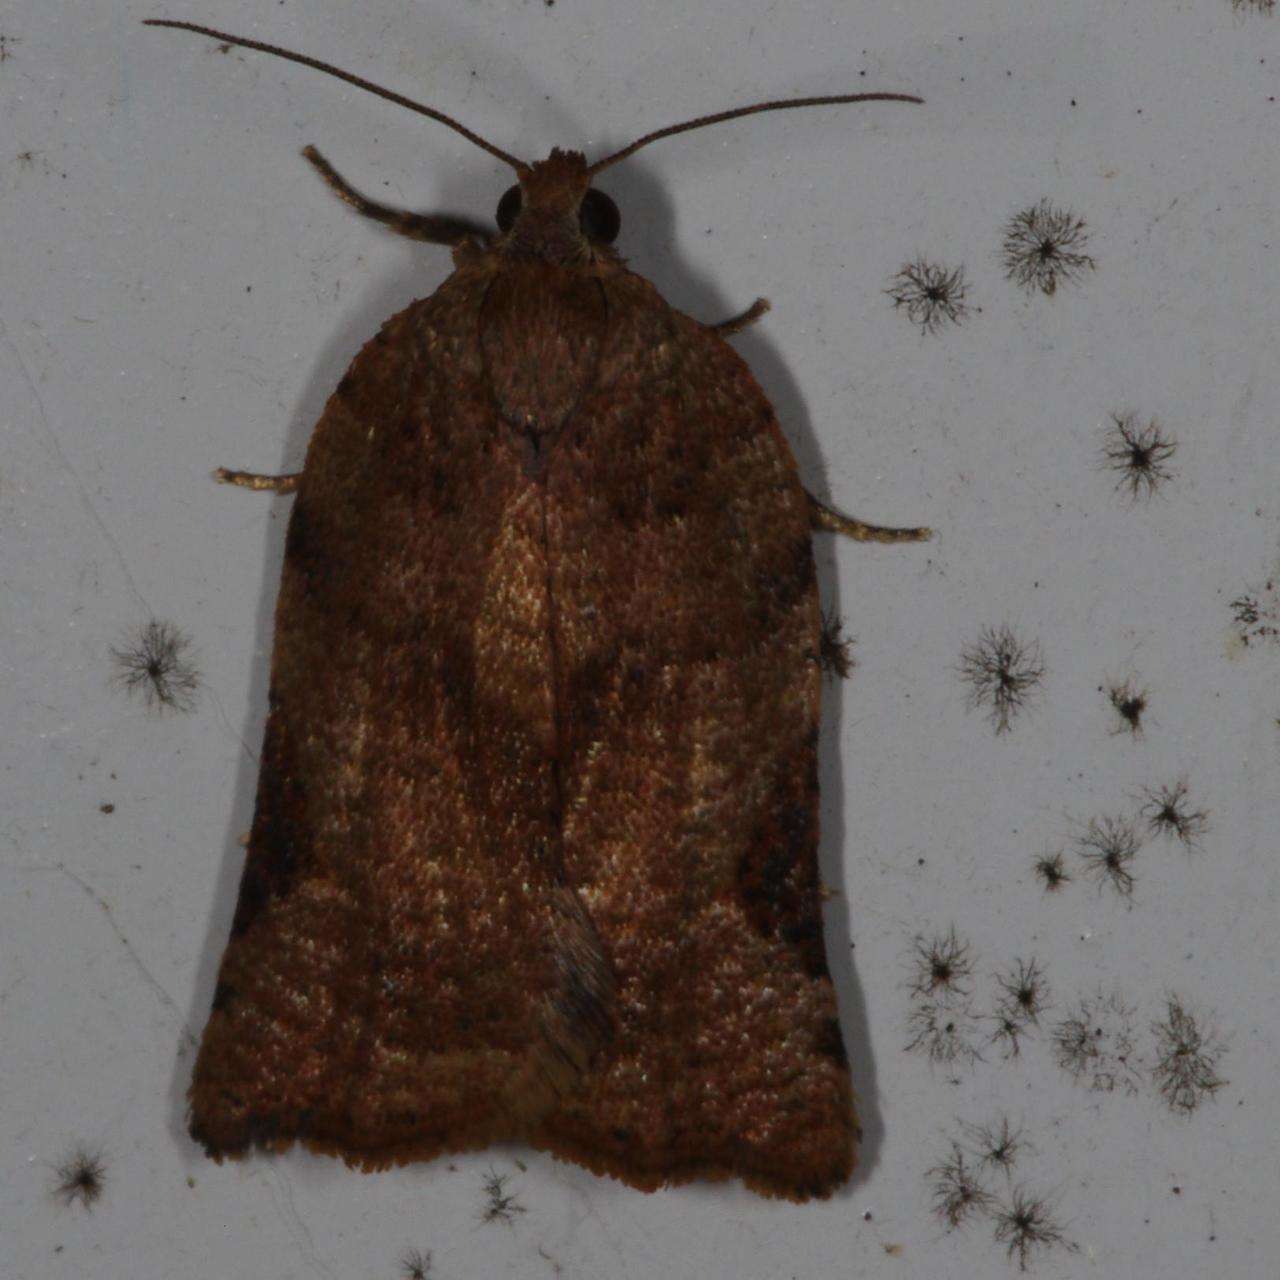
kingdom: Animalia
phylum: Arthropoda
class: Insecta
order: Lepidoptera
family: Tortricidae
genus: Anisogona
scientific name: Anisogona similana
